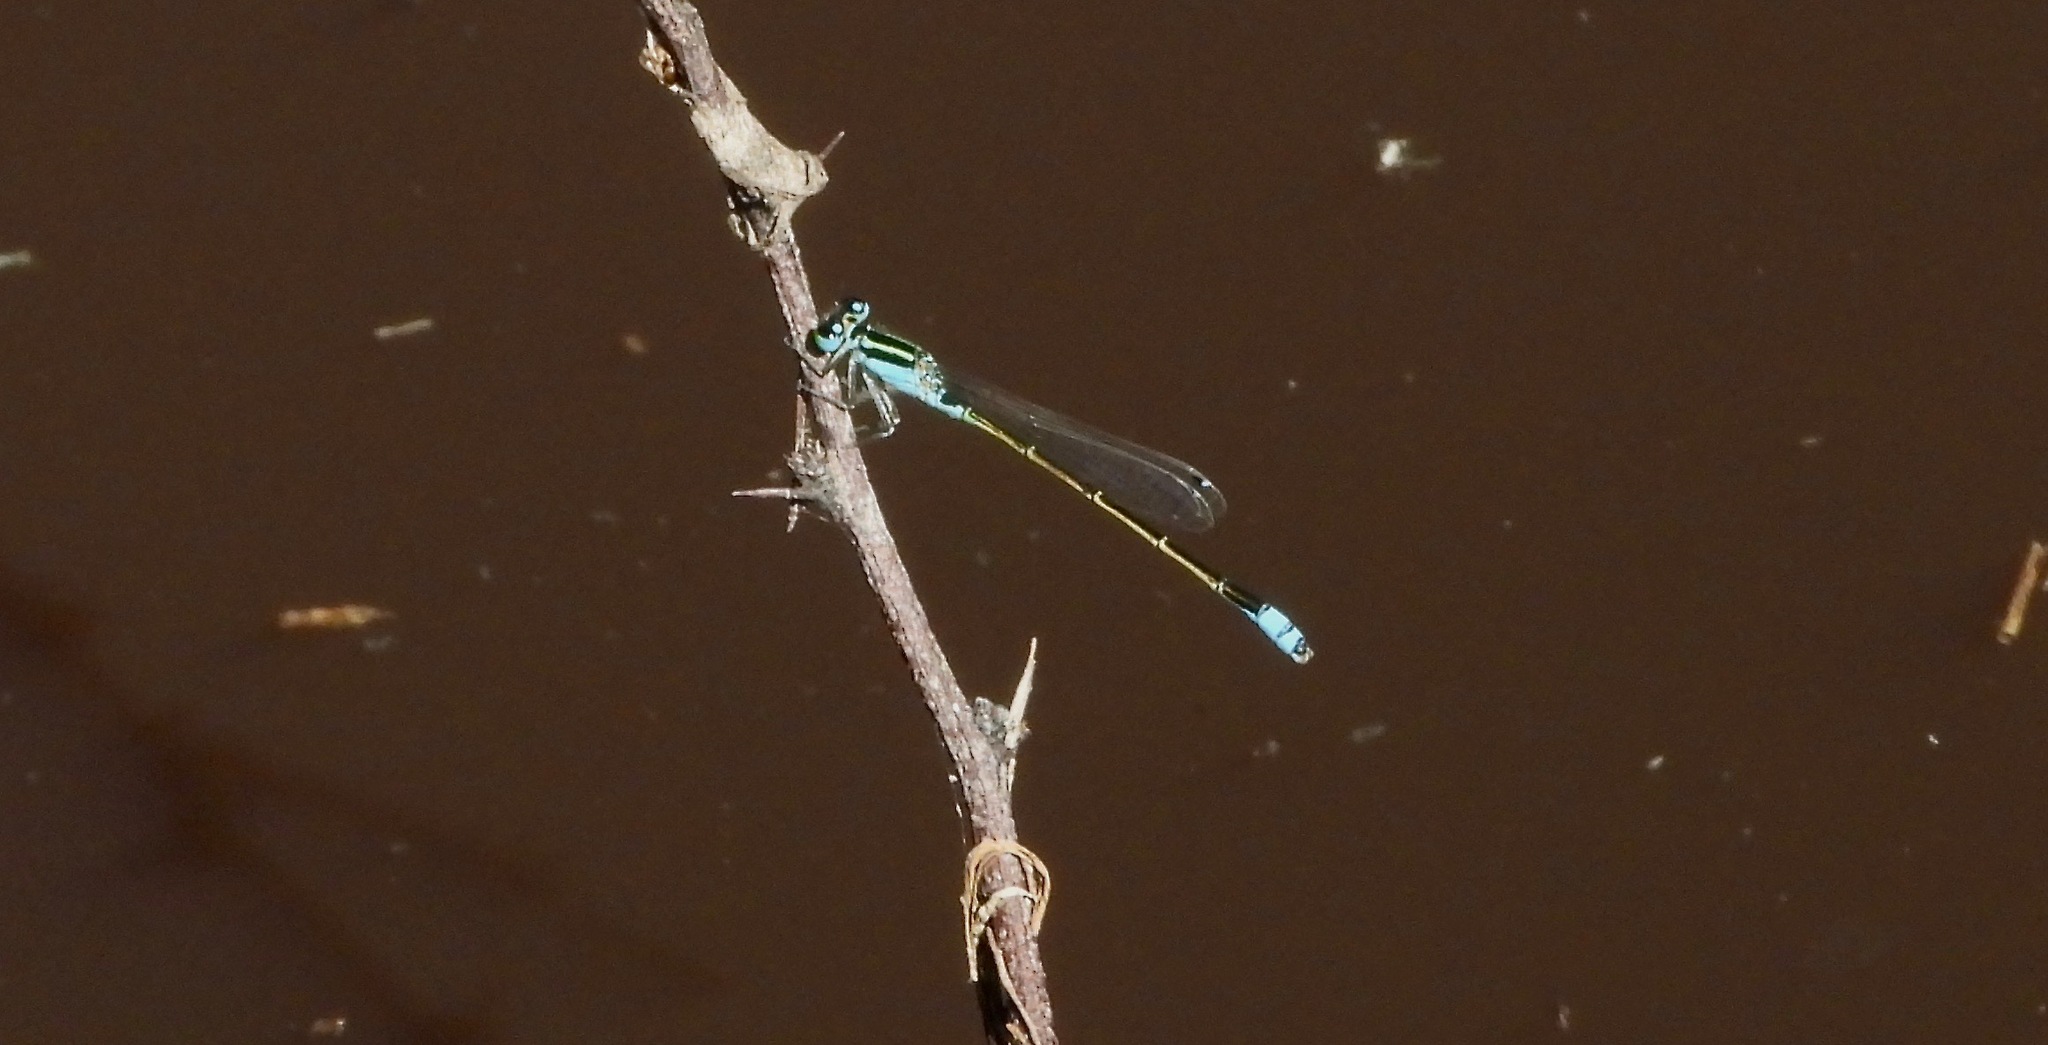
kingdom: Animalia
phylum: Arthropoda
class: Insecta
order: Odonata
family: Coenagrionidae
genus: Ischnura
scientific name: Ischnura fluviatilis
